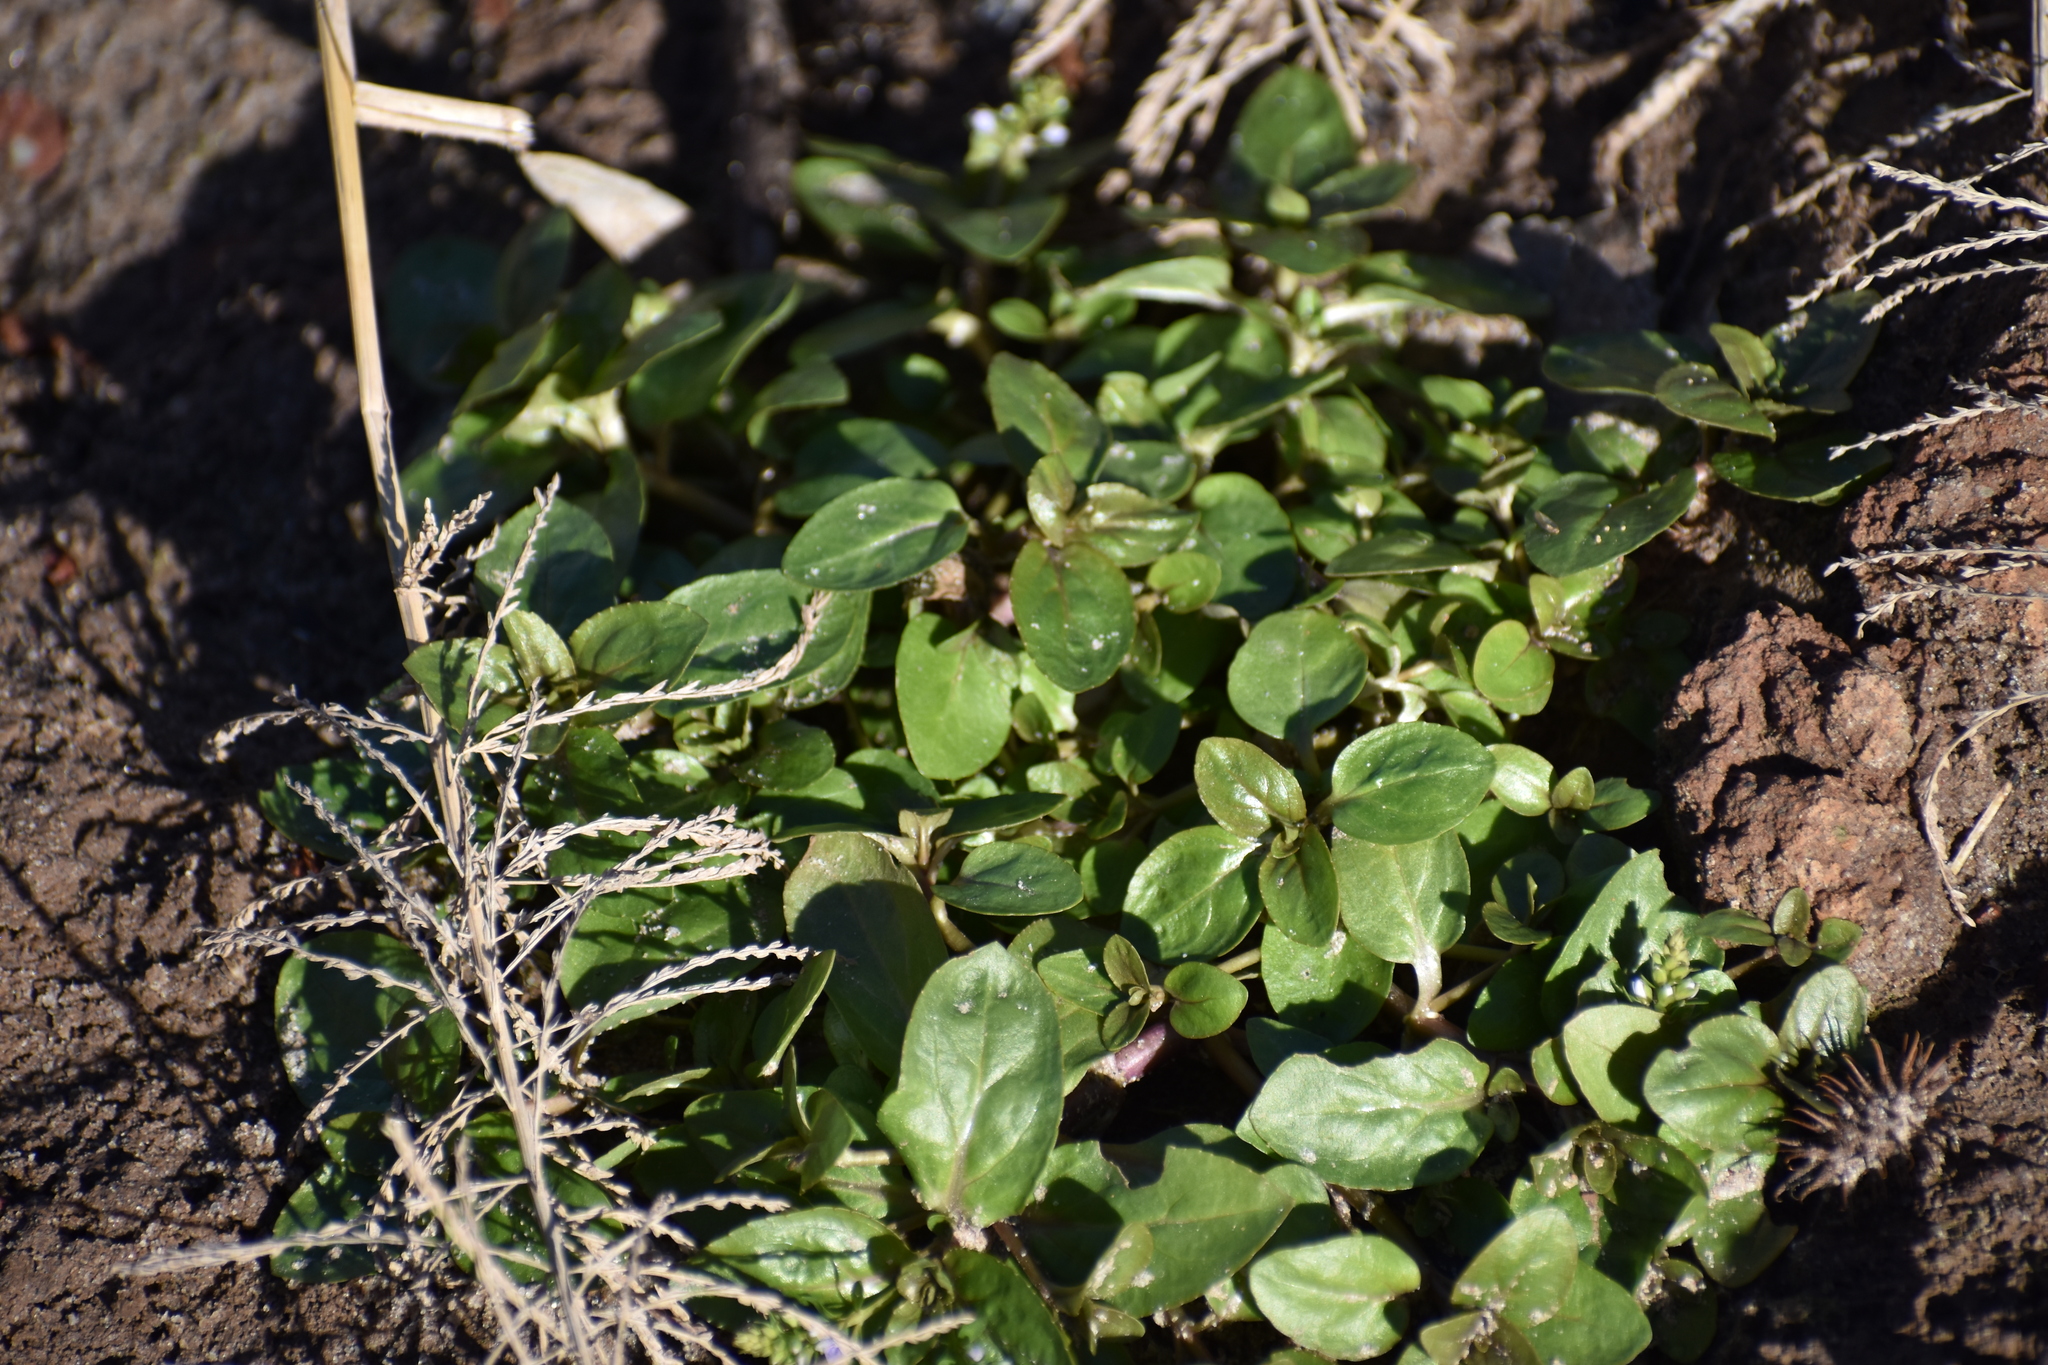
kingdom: Plantae
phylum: Tracheophyta
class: Magnoliopsida
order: Lamiales
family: Plantaginaceae
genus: Veronica
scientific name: Veronica anagallis-aquatica
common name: Water speedwell
